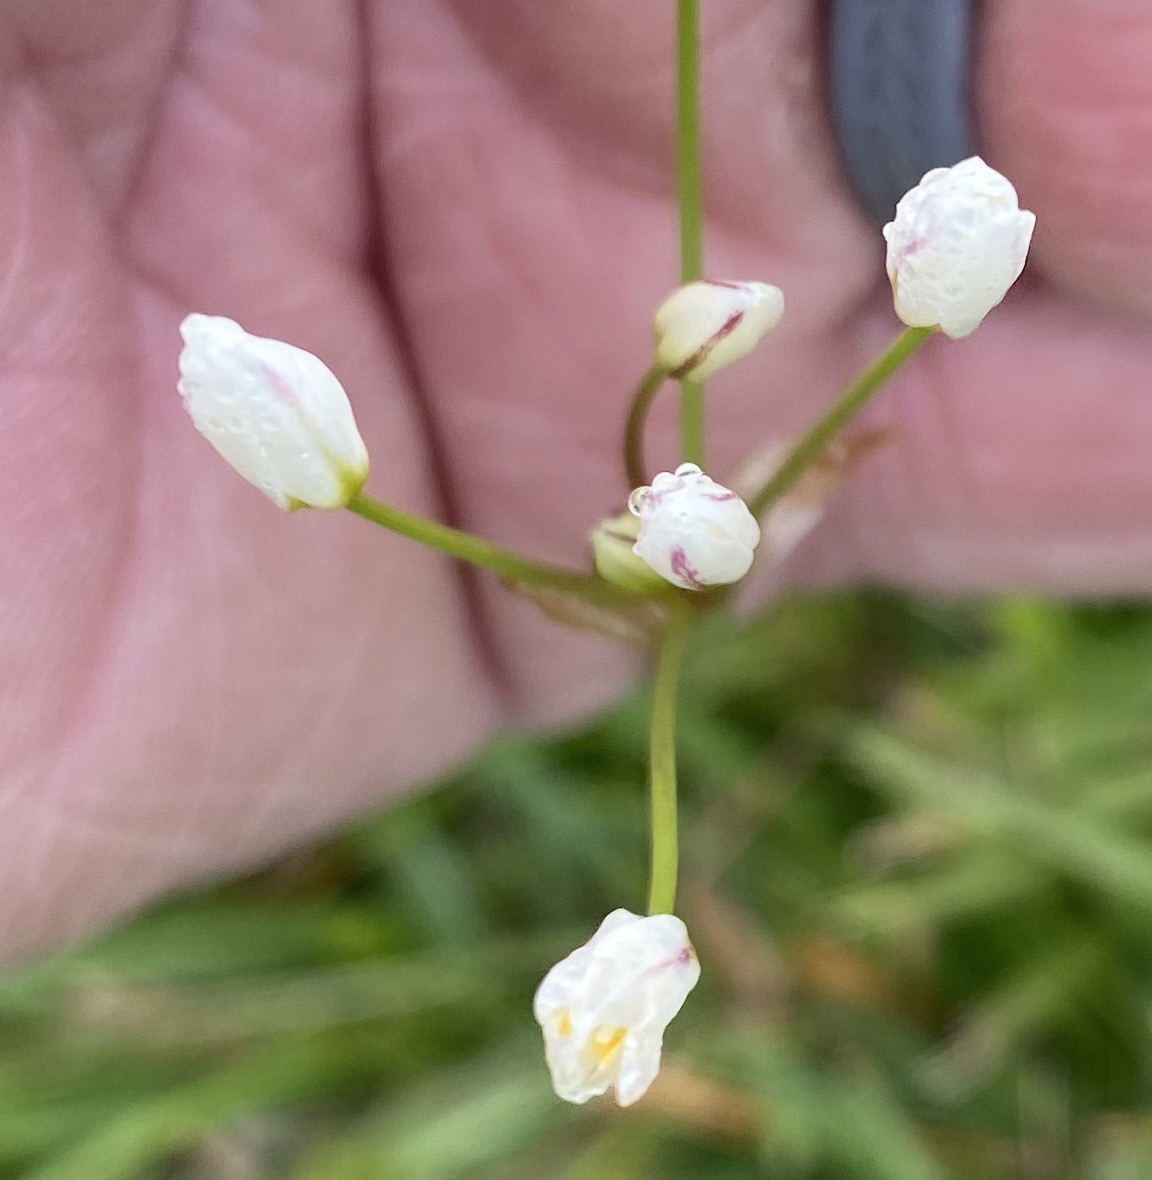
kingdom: Plantae
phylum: Tracheophyta
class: Liliopsida
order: Asparagales
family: Amaryllidaceae
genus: Nothoscordum
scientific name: Nothoscordum bivalve
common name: Crow-poison
